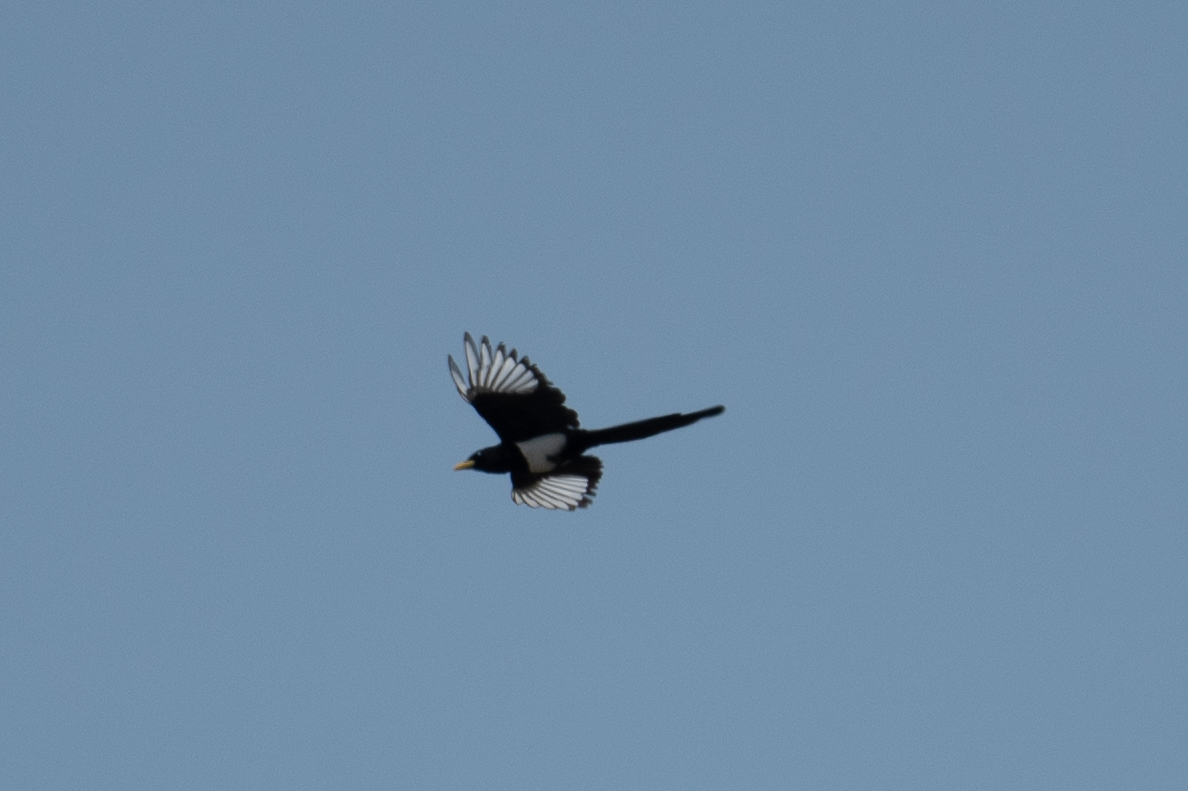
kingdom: Animalia
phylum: Chordata
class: Aves
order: Passeriformes
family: Corvidae
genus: Pica
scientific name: Pica nuttalli
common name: Yellow-billed magpie
